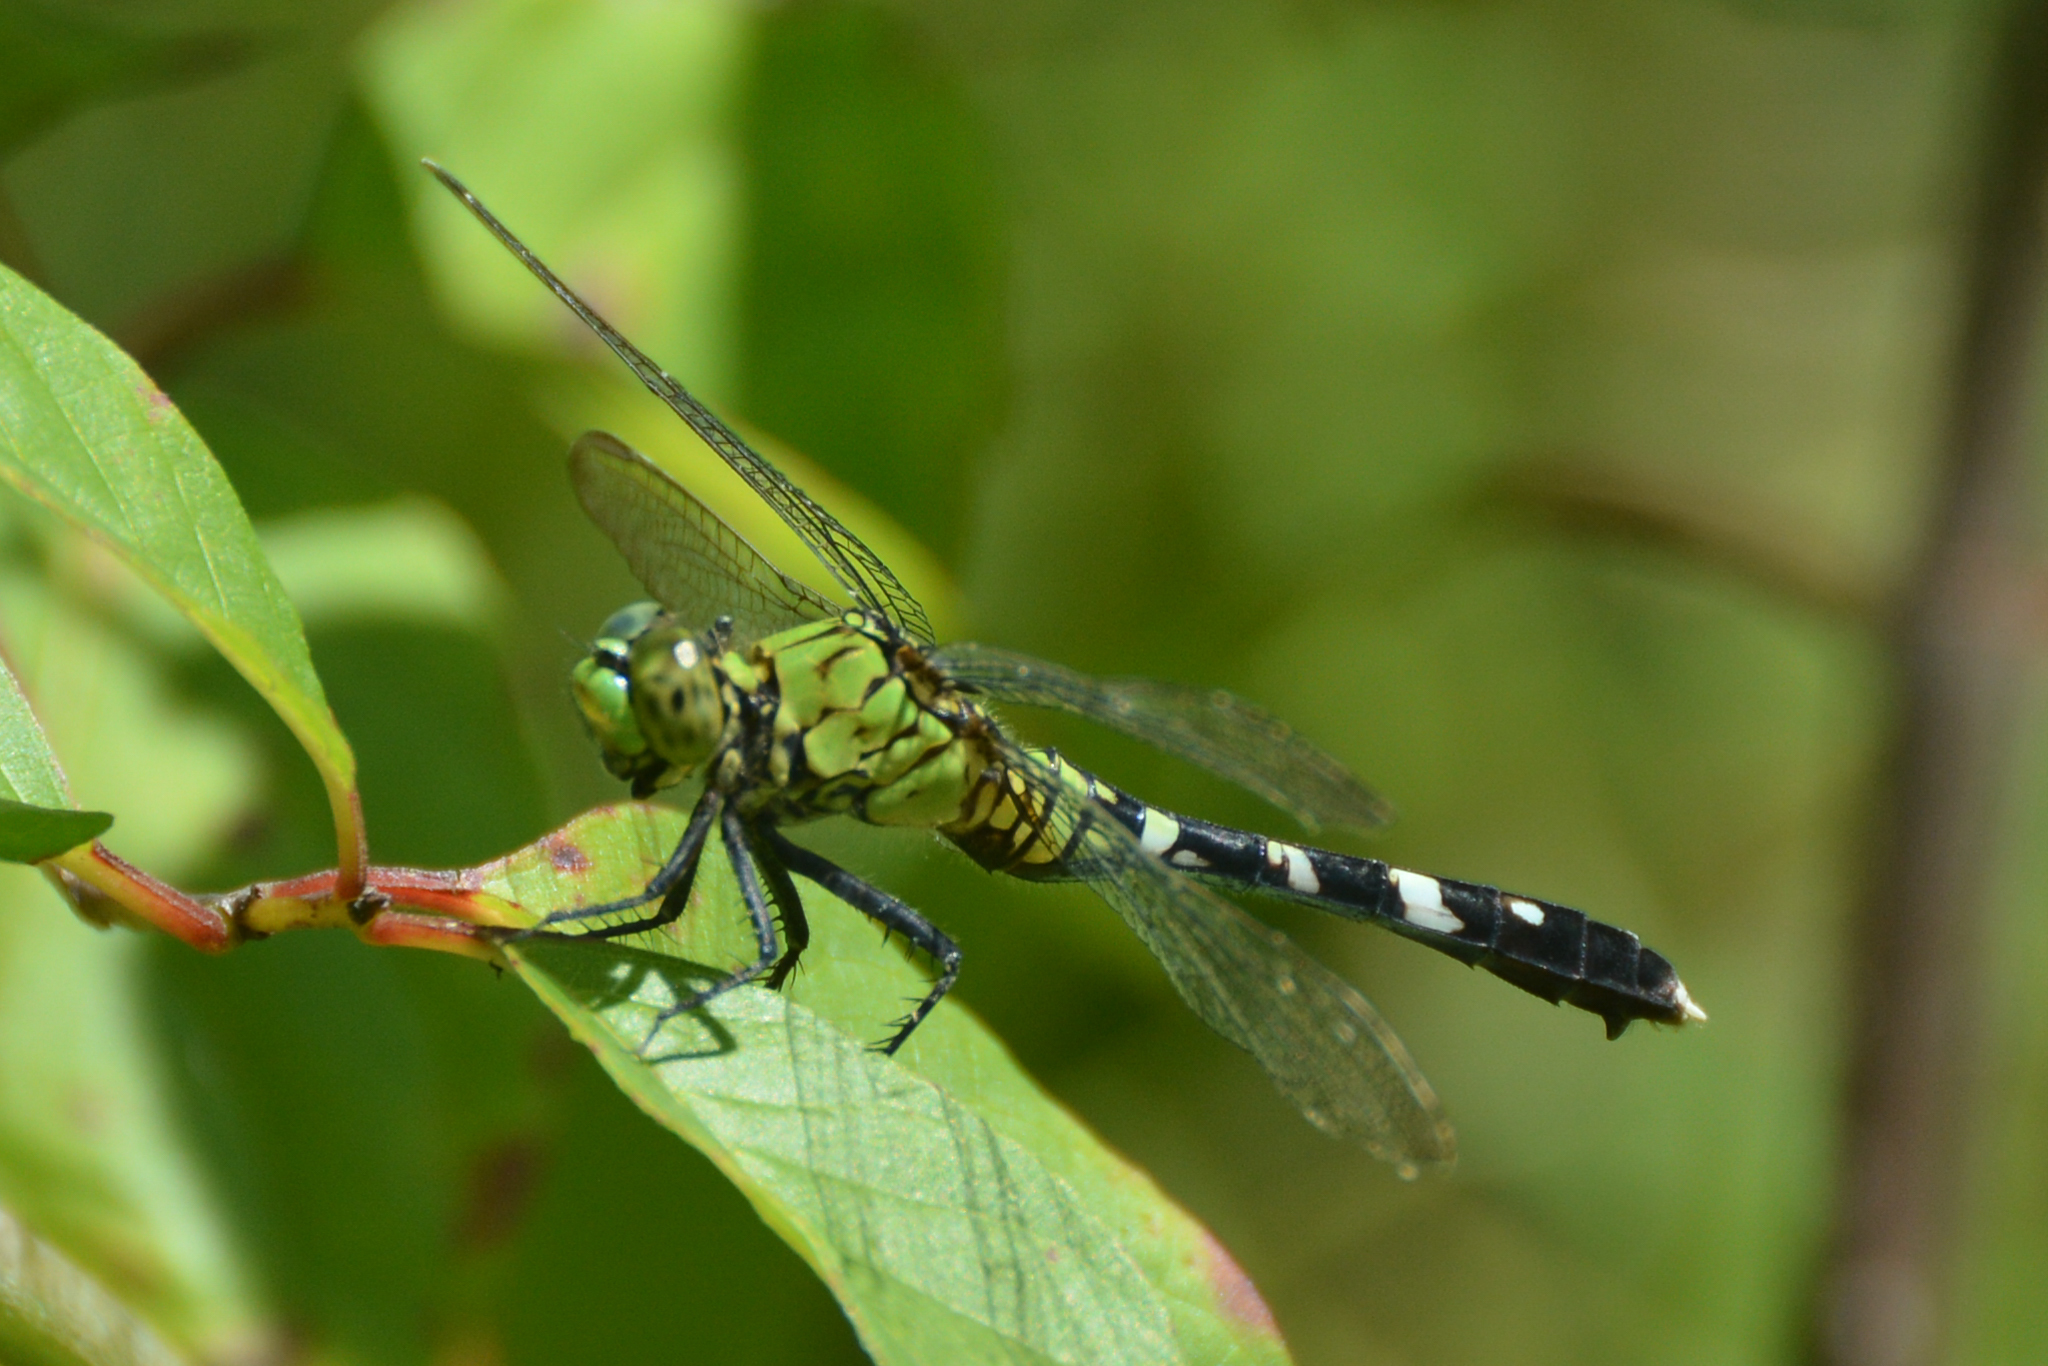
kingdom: Animalia
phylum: Arthropoda
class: Insecta
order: Odonata
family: Libellulidae
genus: Erythemis
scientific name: Erythemis simplicicollis
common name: Eastern pondhawk
